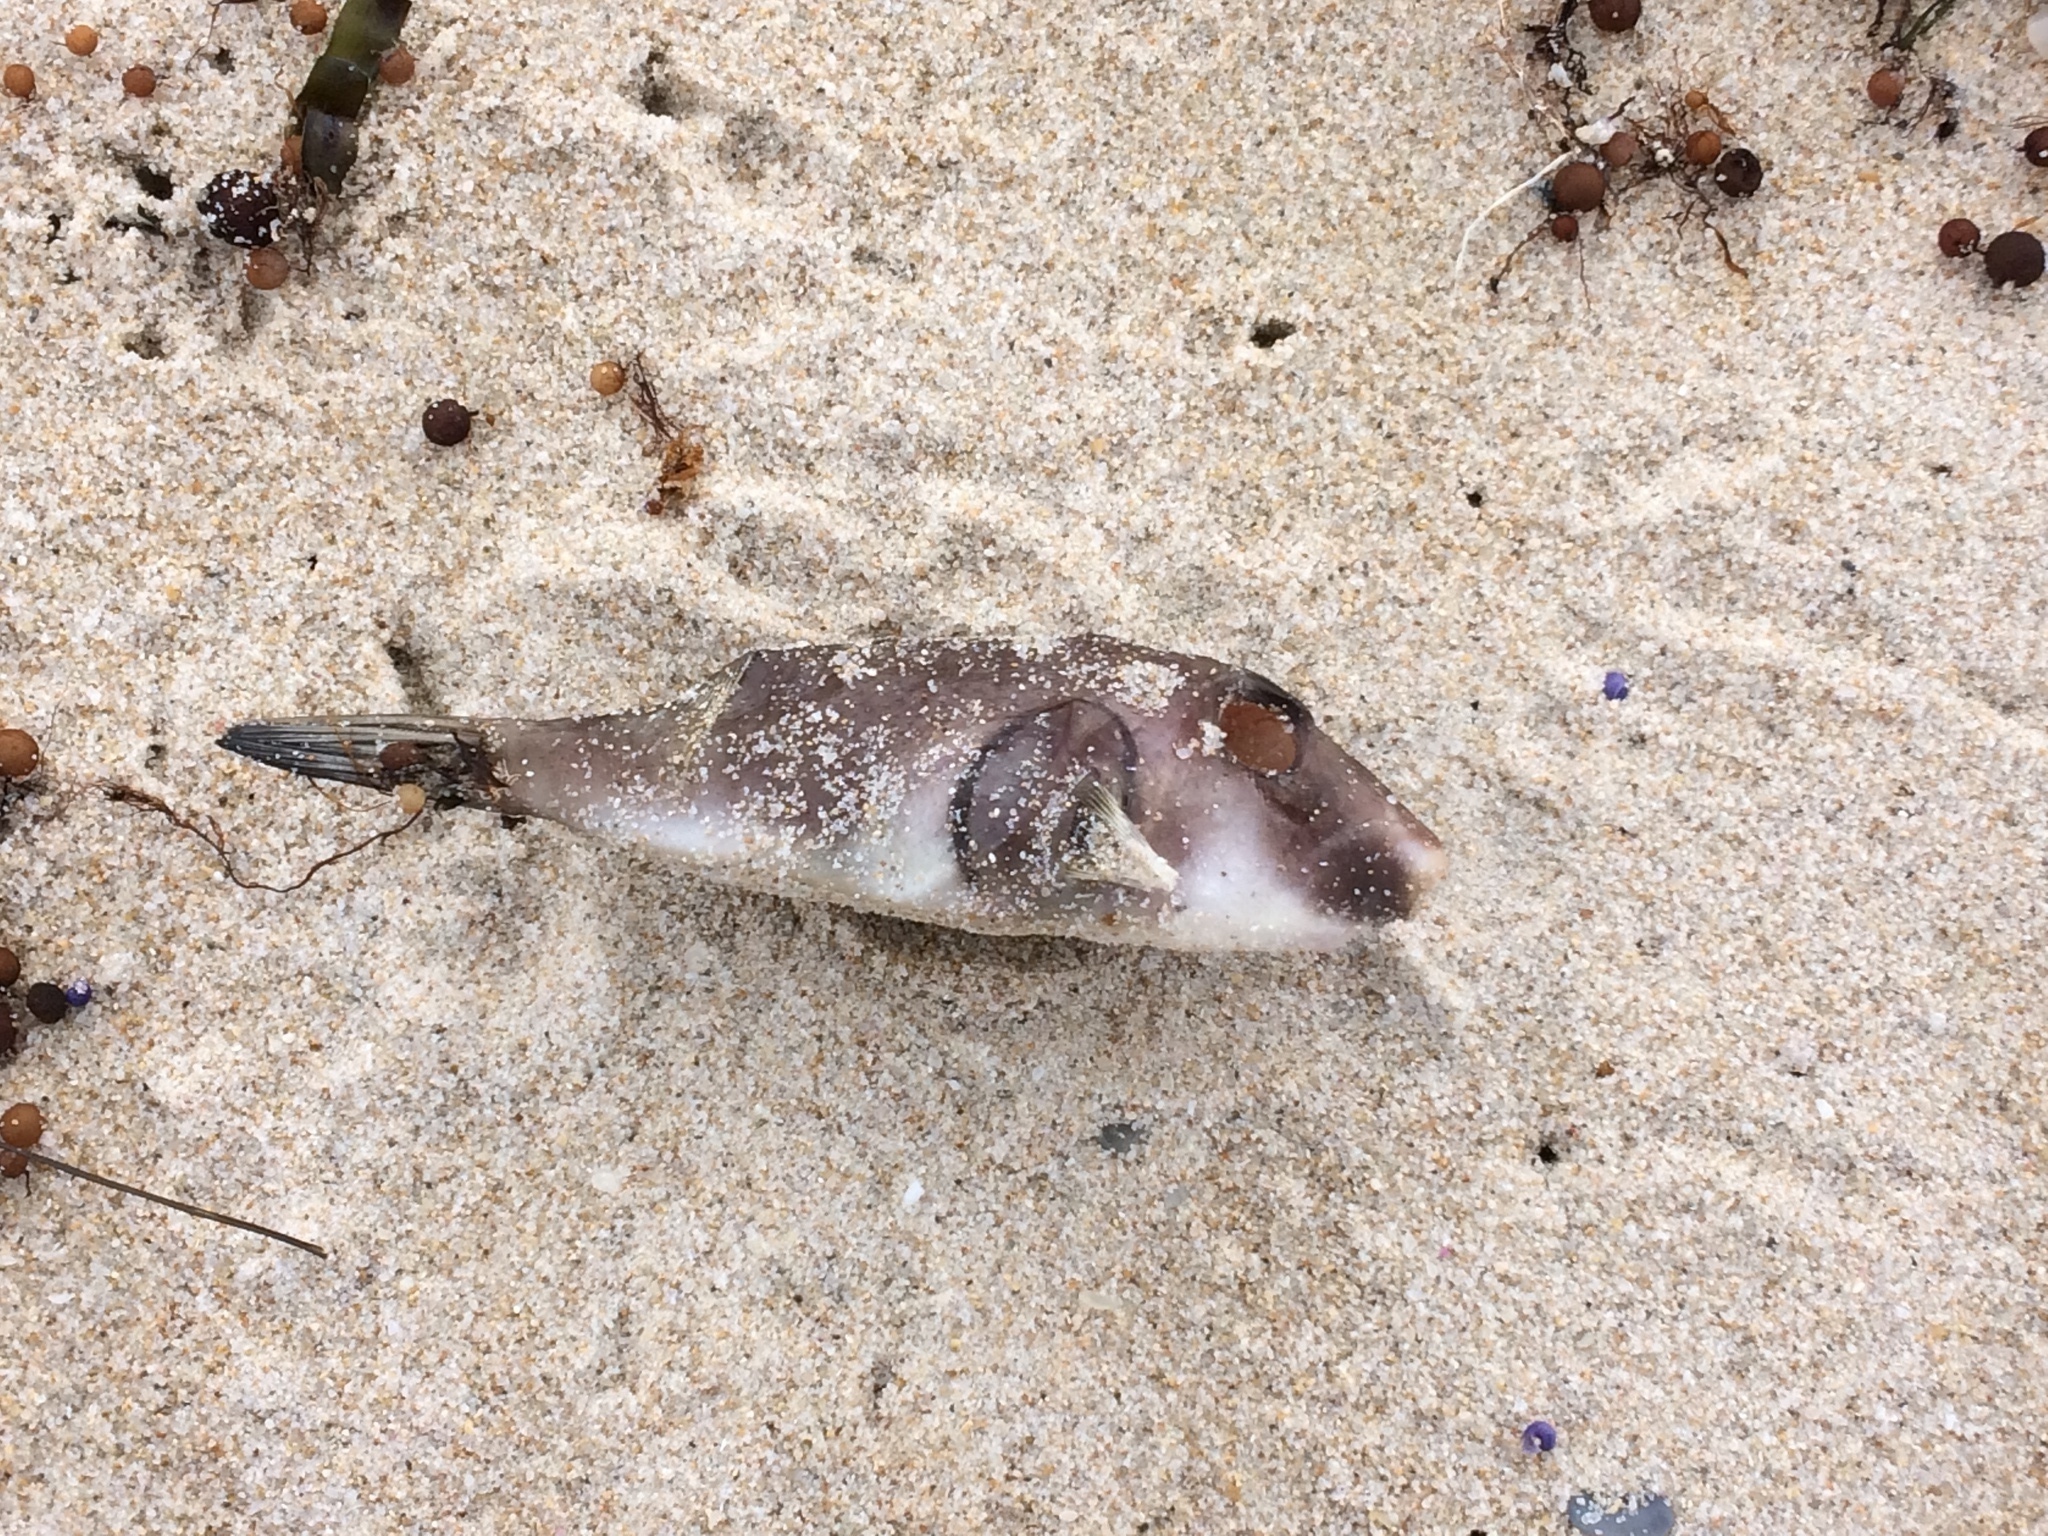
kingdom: Animalia
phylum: Chordata
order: Tetraodontiformes
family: Tetraodontidae
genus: Omegophora
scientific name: Omegophora armilla
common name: Ringed pufferfish
